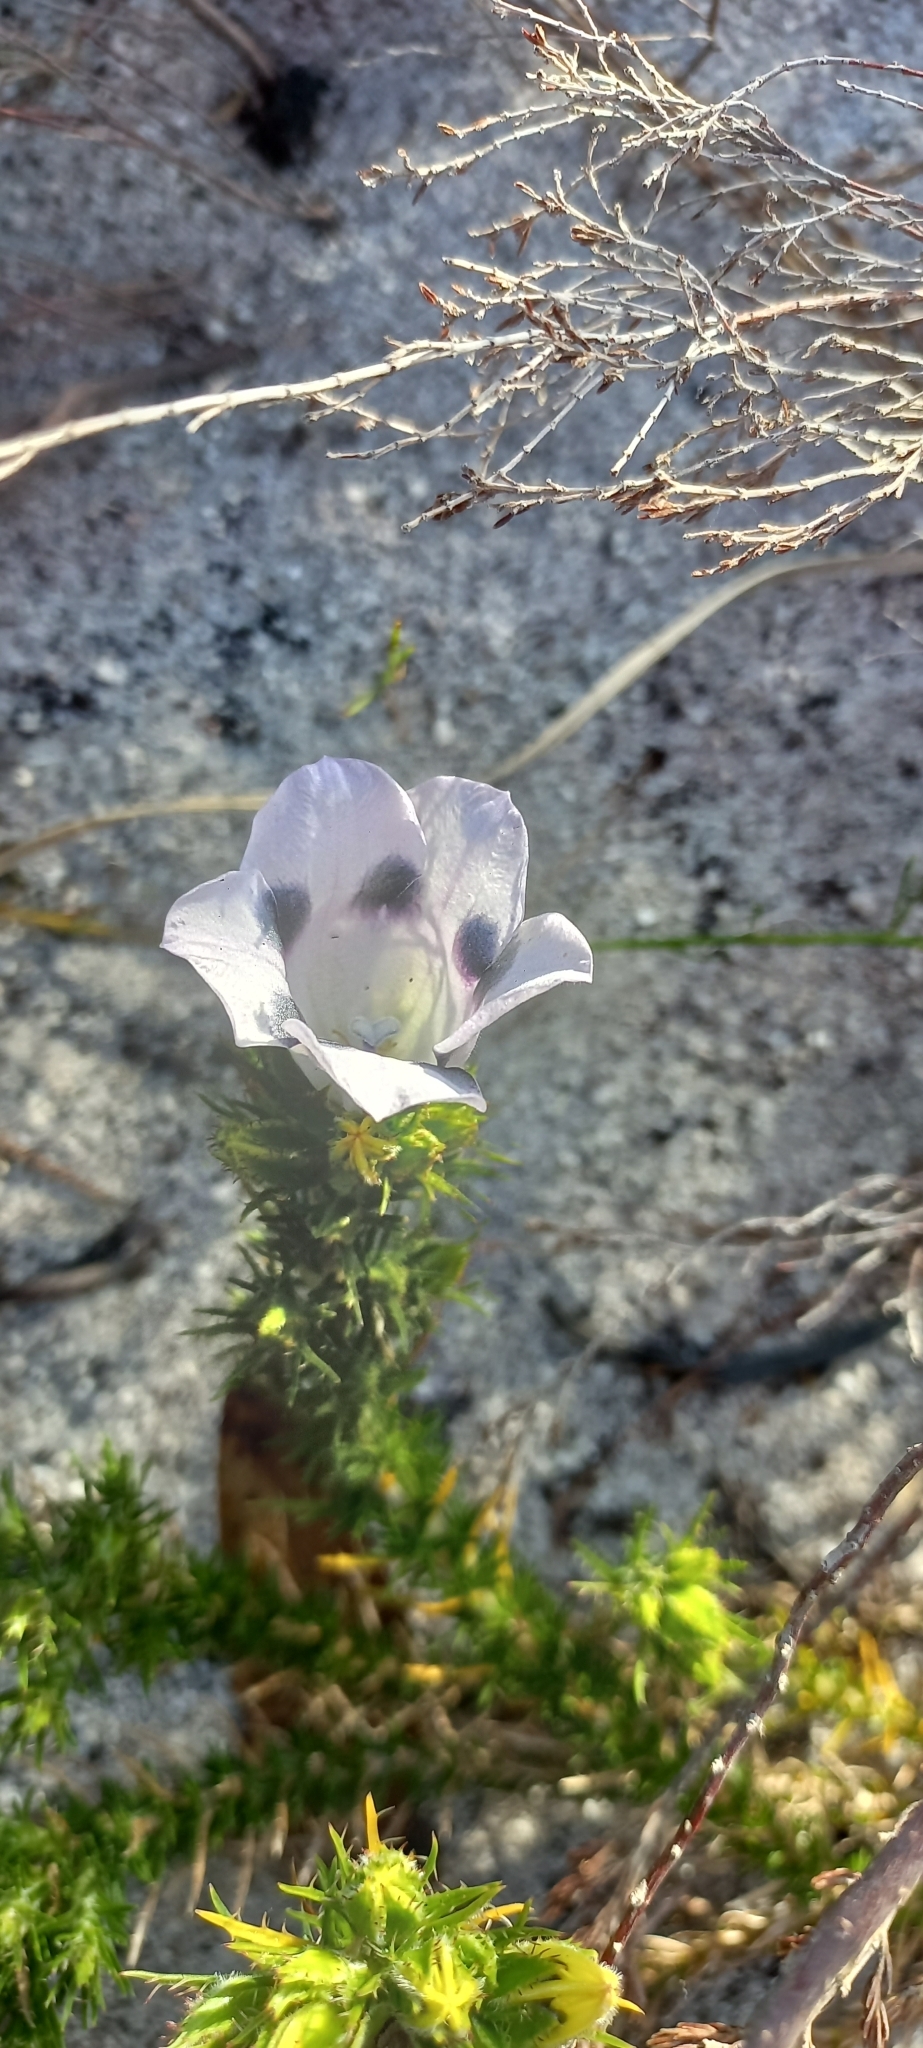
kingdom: Plantae
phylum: Tracheophyta
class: Magnoliopsida
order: Asterales
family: Campanulaceae
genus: Roella
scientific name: Roella maculata
